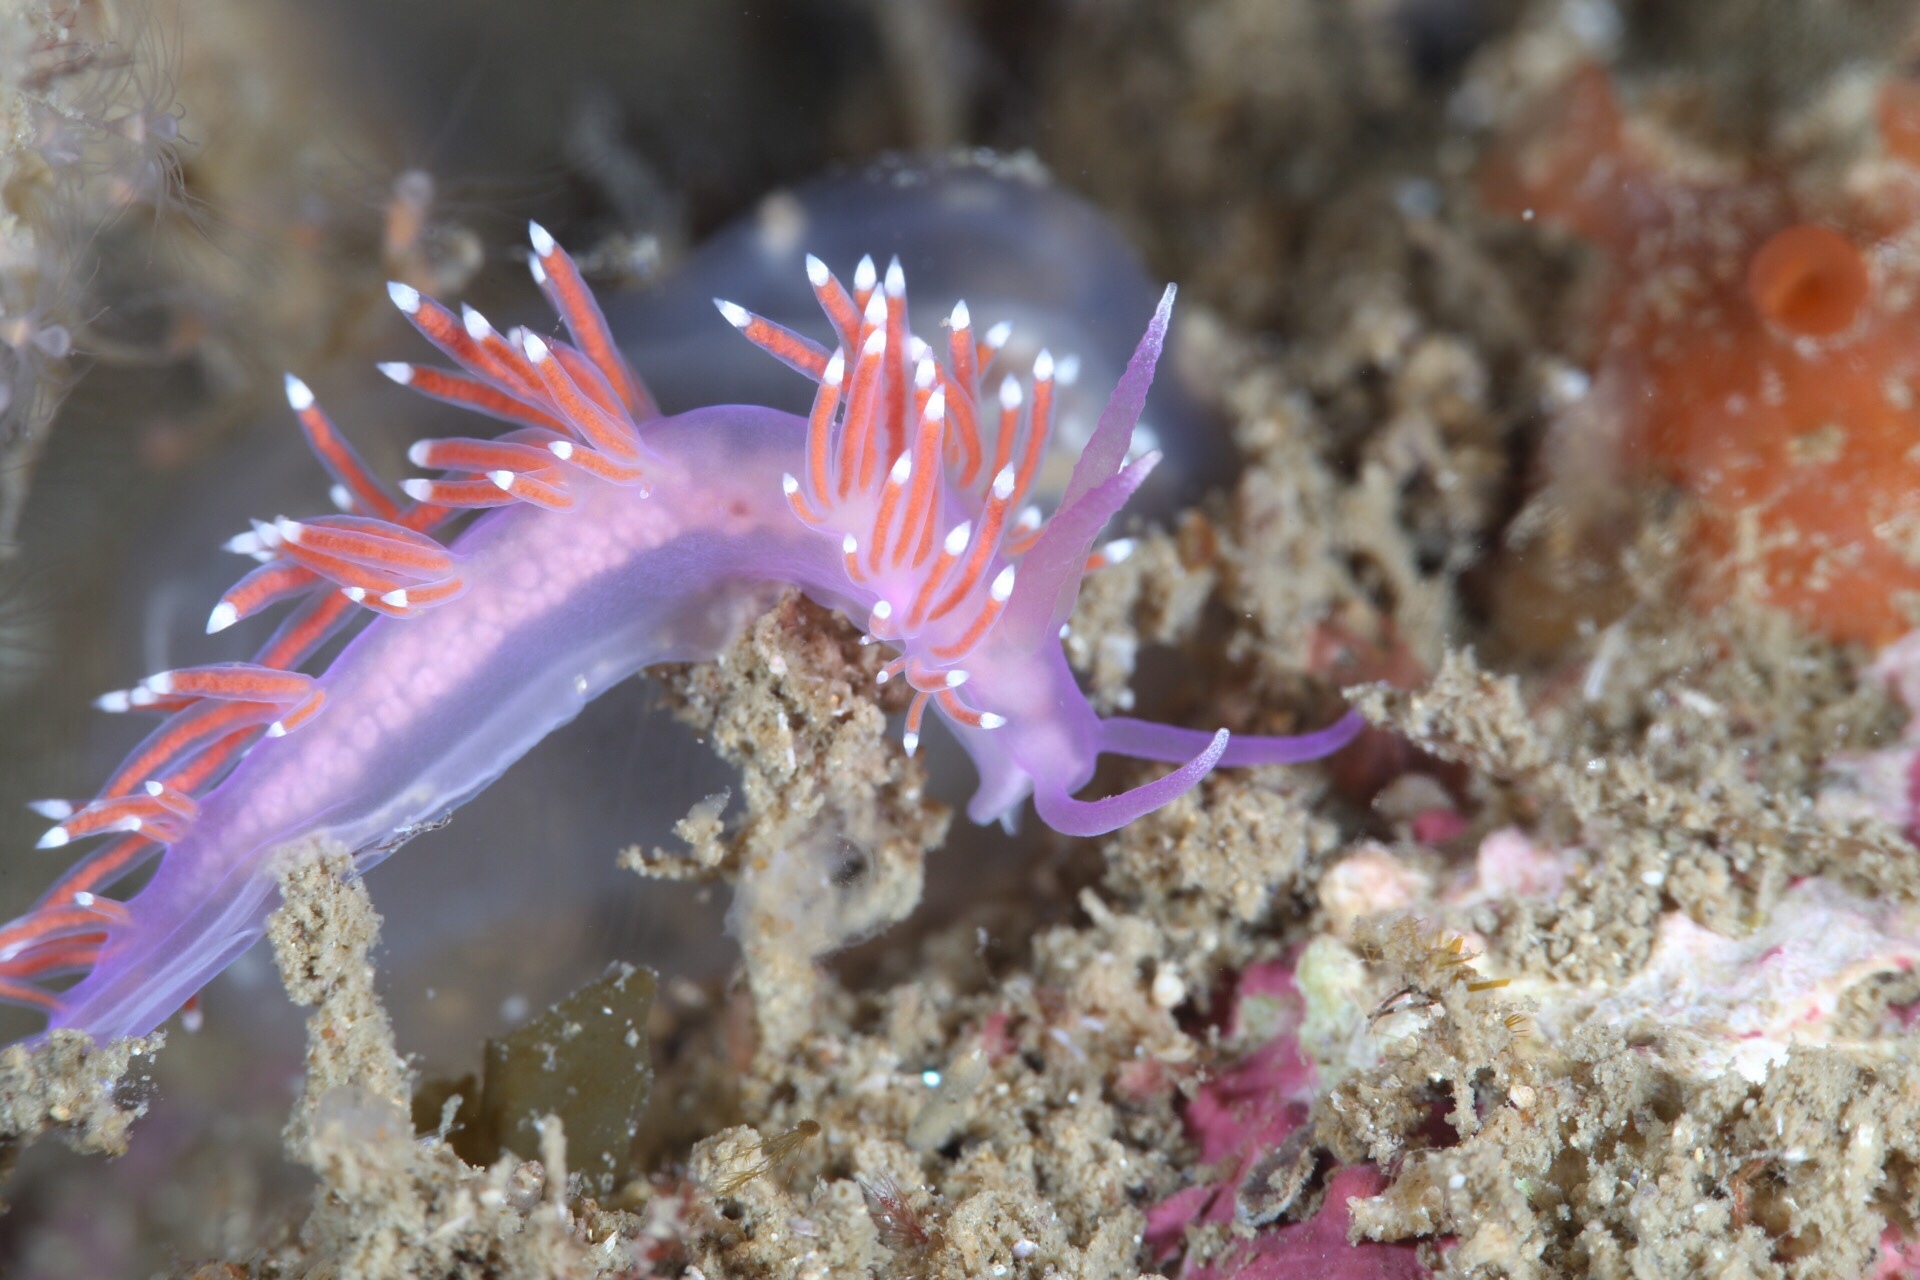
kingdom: Animalia
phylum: Mollusca
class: Gastropoda
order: Nudibranchia
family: Flabellinidae
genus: Edmundsella
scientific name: Edmundsella pedata
